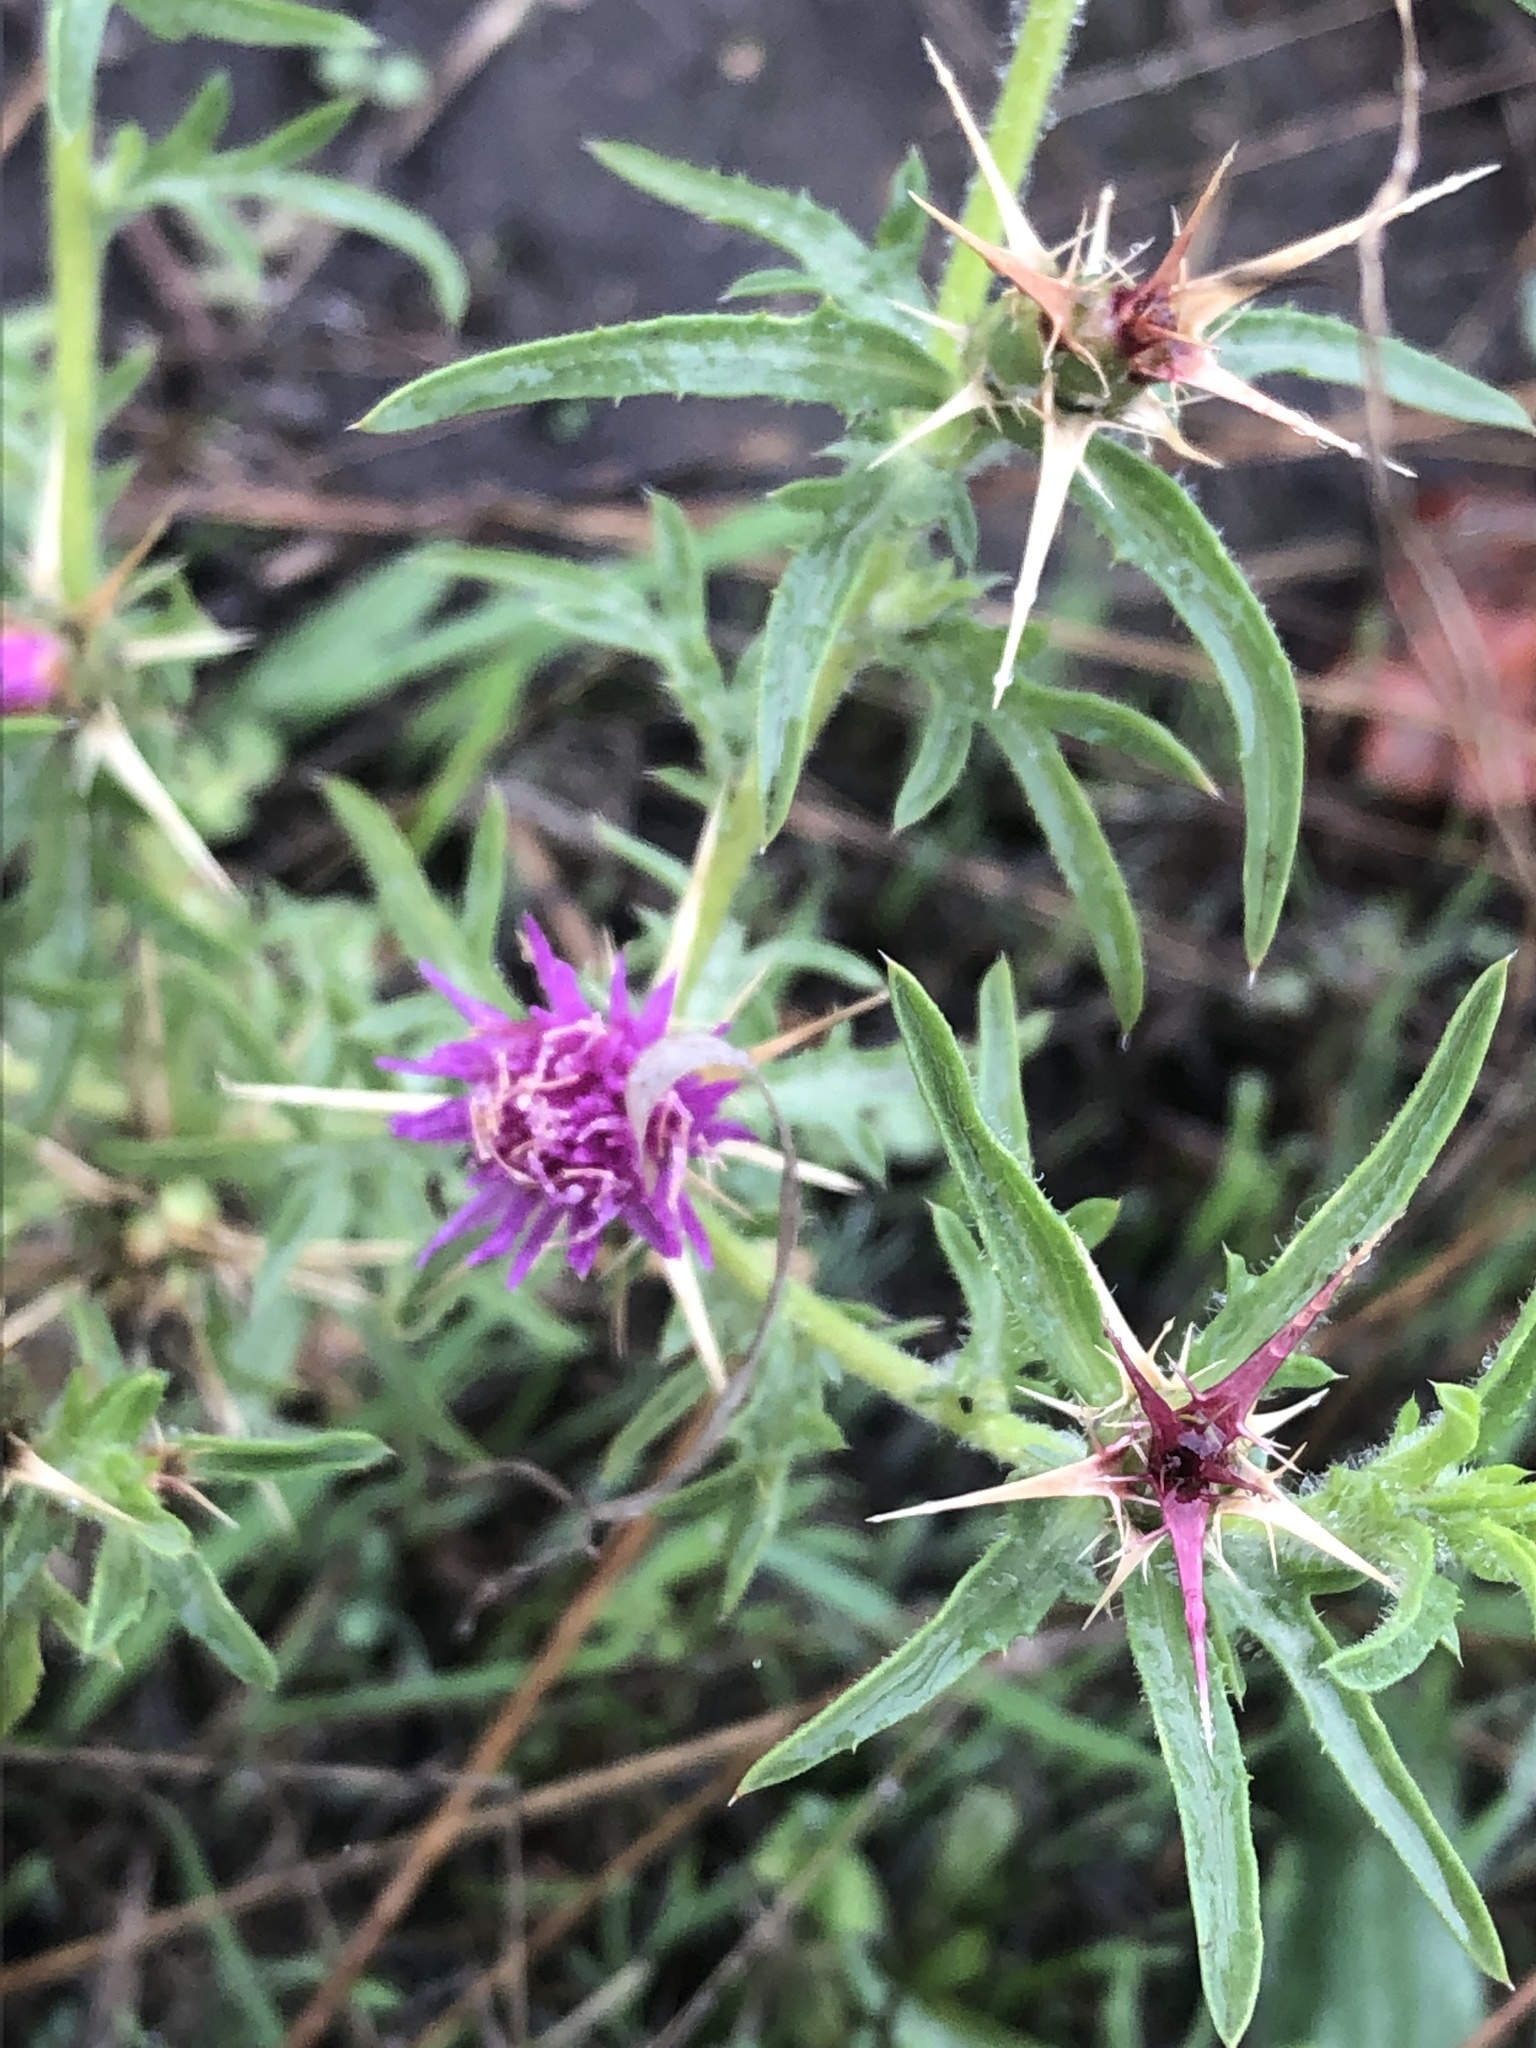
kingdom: Plantae
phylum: Tracheophyta
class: Magnoliopsida
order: Asterales
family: Asteraceae
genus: Centaurea
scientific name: Centaurea calcitrapa
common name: Red star-thistle
